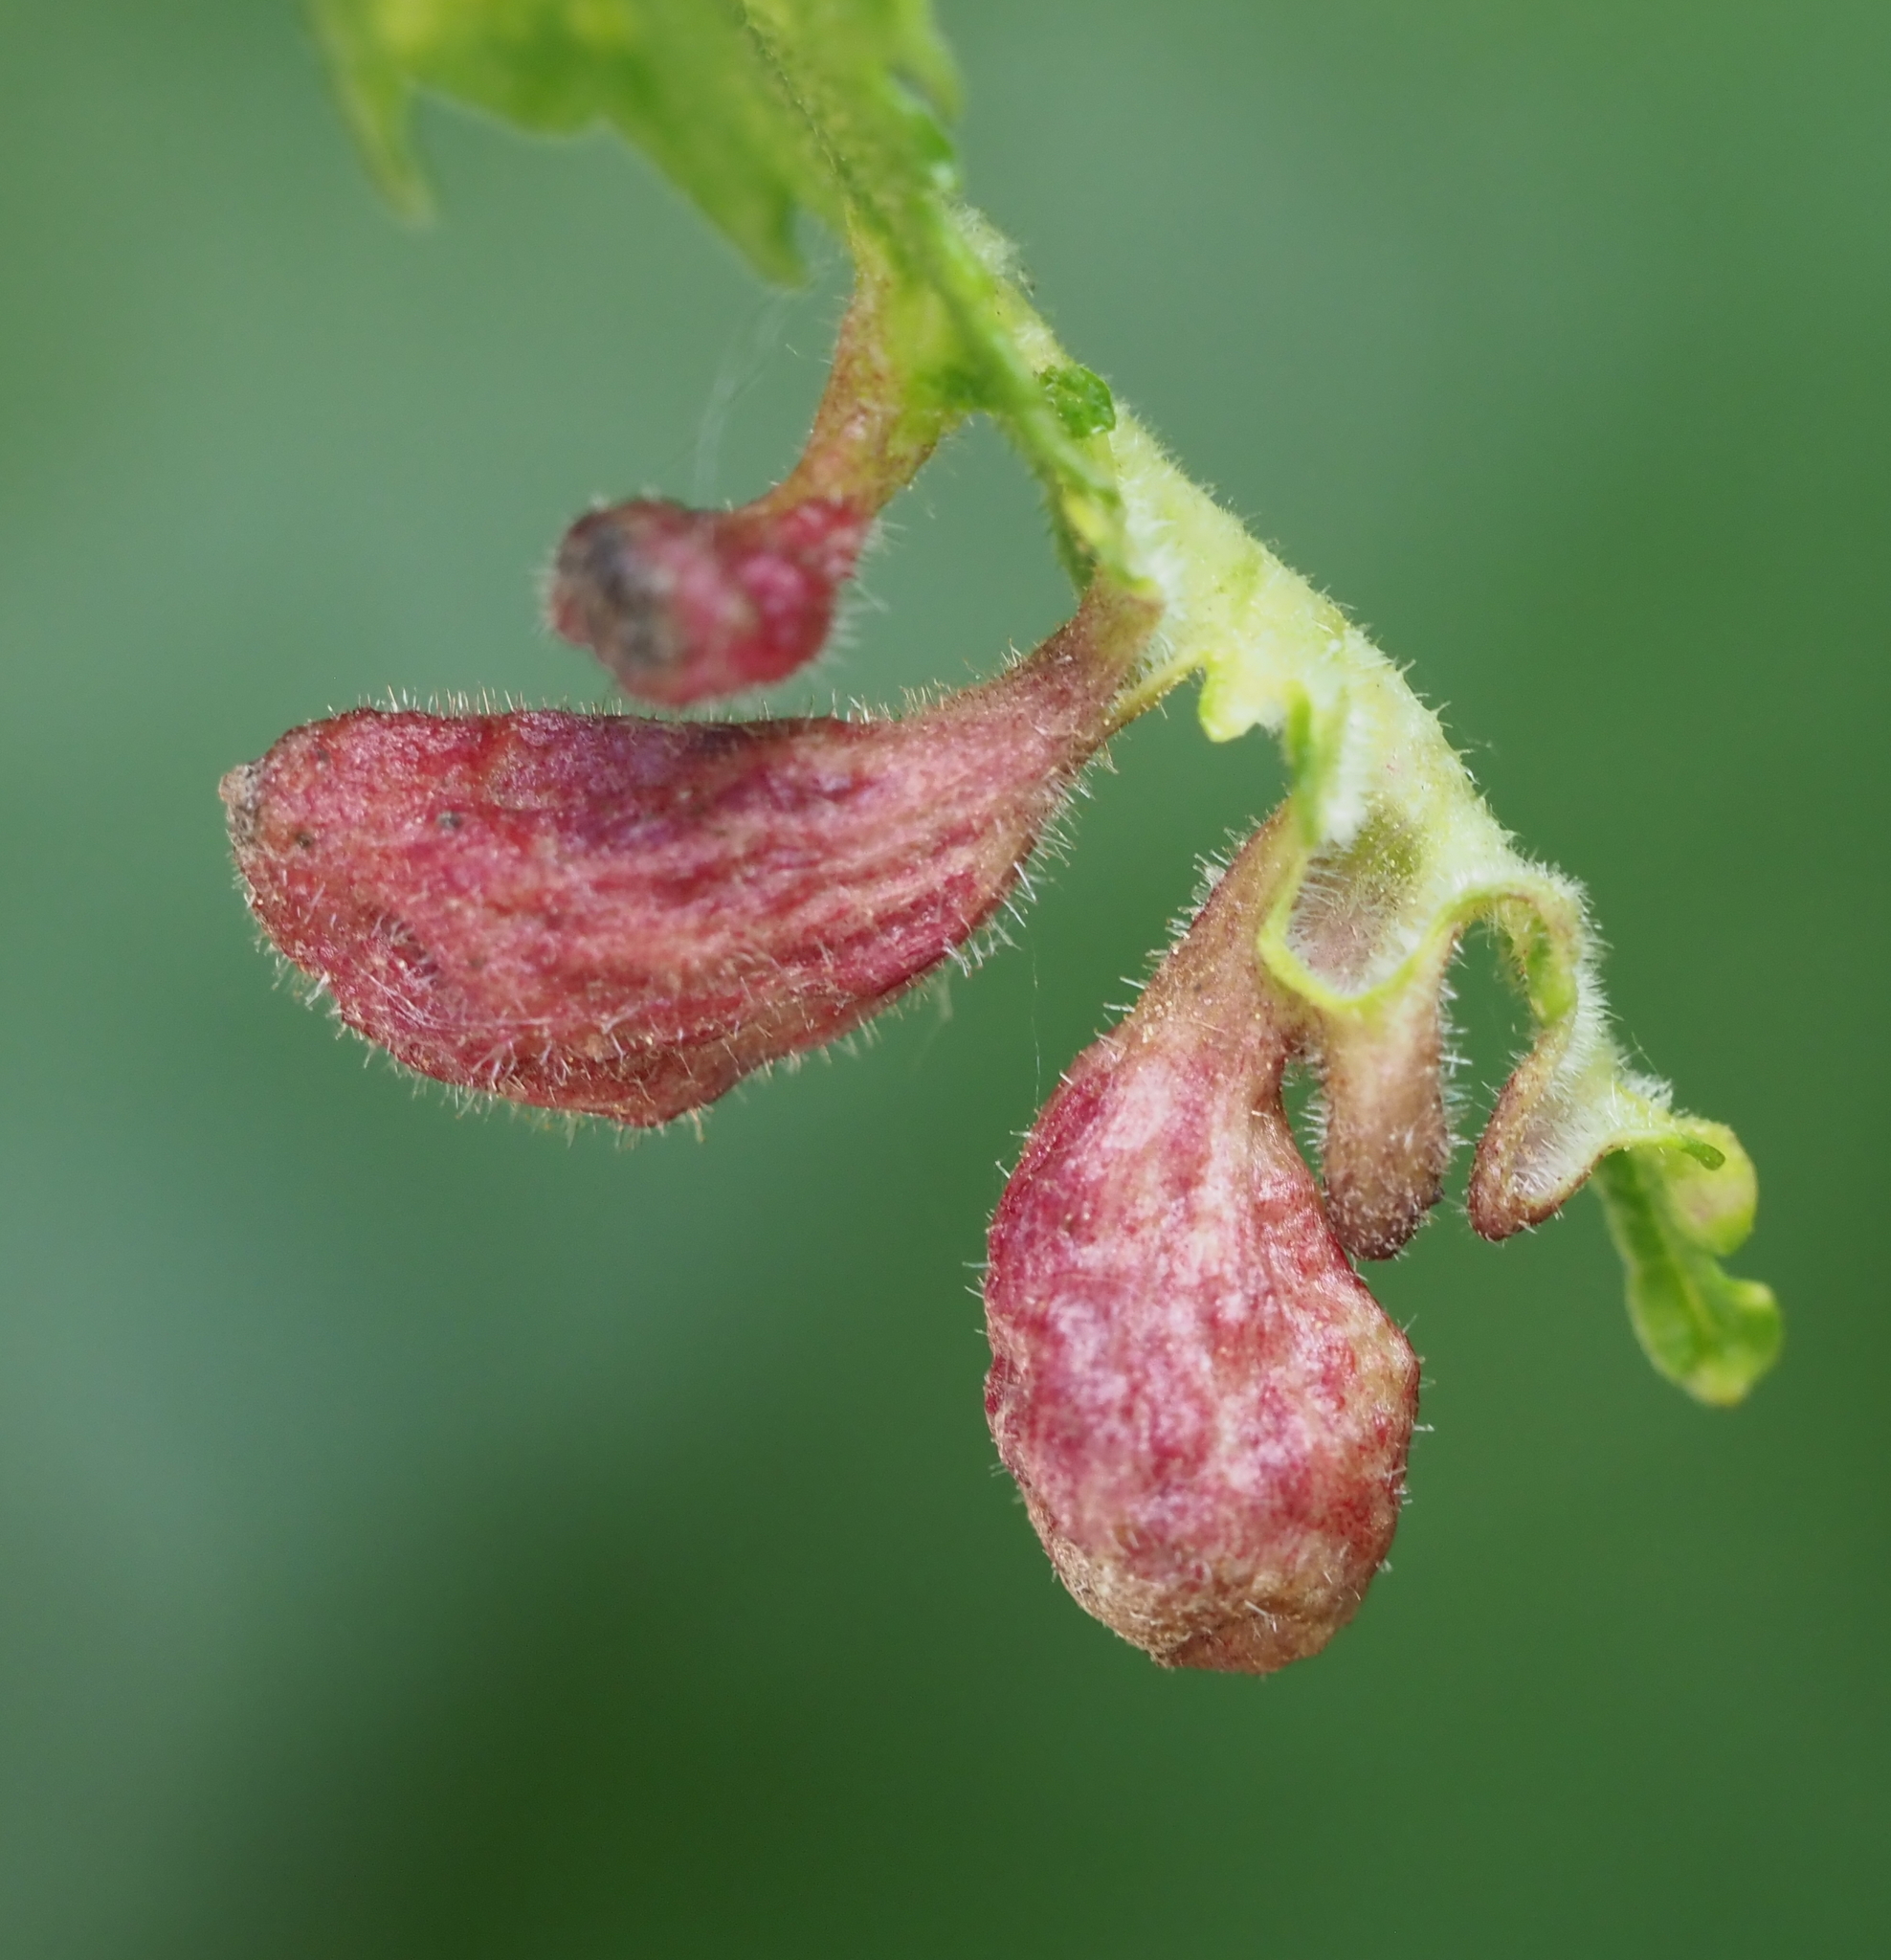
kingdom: Animalia
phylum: Arthropoda
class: Insecta
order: Hemiptera
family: Aphididae
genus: Tetraneura
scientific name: Tetraneura nigriabdominalis
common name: Aphid
